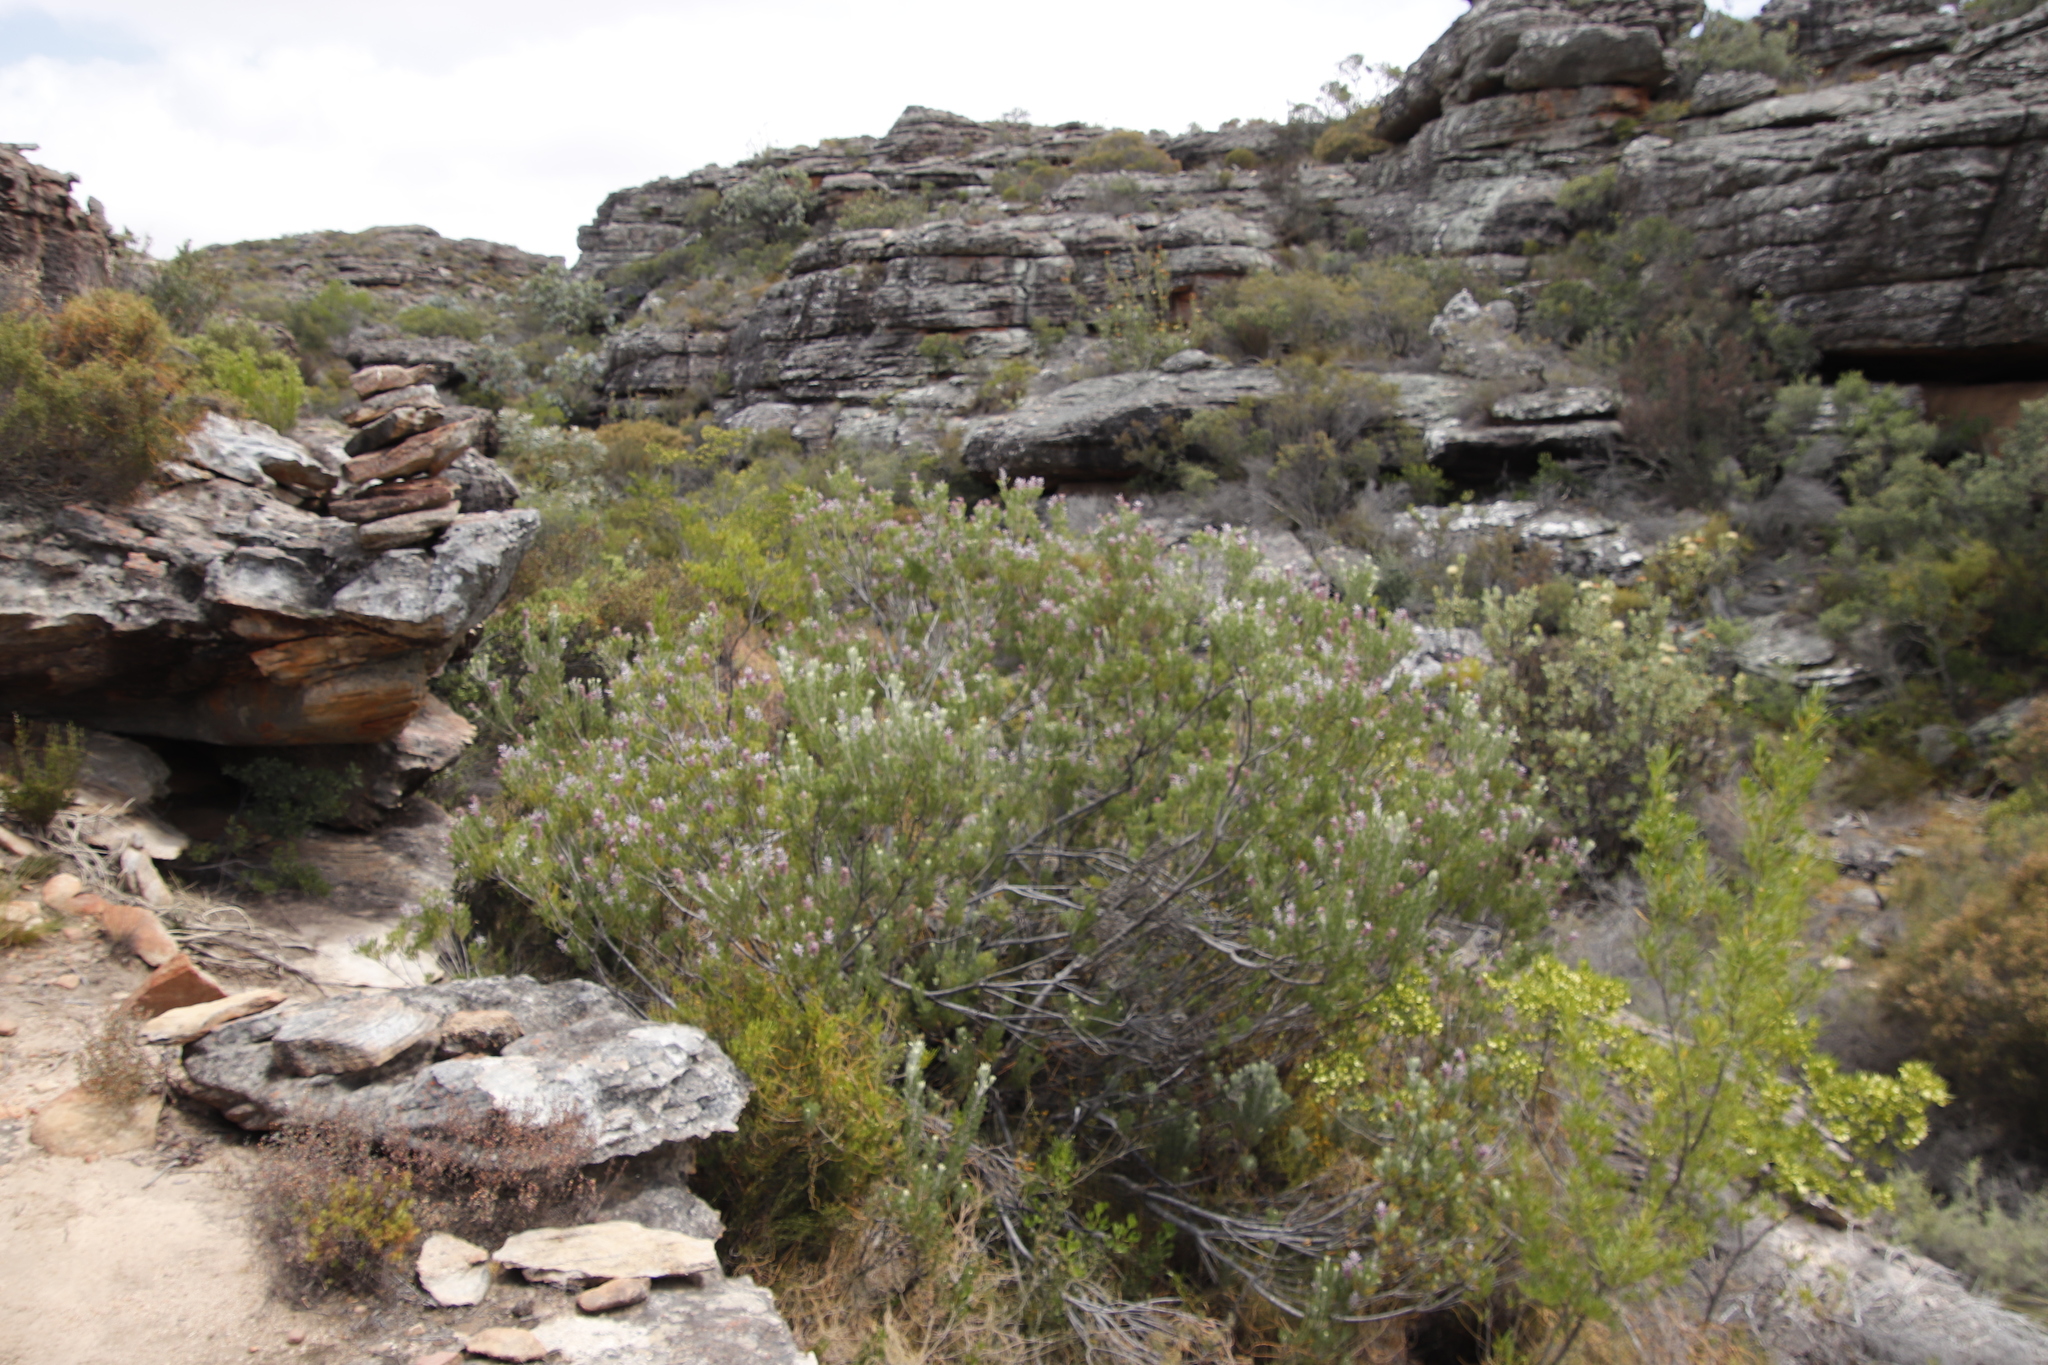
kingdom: Plantae
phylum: Tracheophyta
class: Magnoliopsida
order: Proteales
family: Proteaceae
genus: Paranomus
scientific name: Paranomus bracteolaris
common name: Bokkeveld tree sceptre
